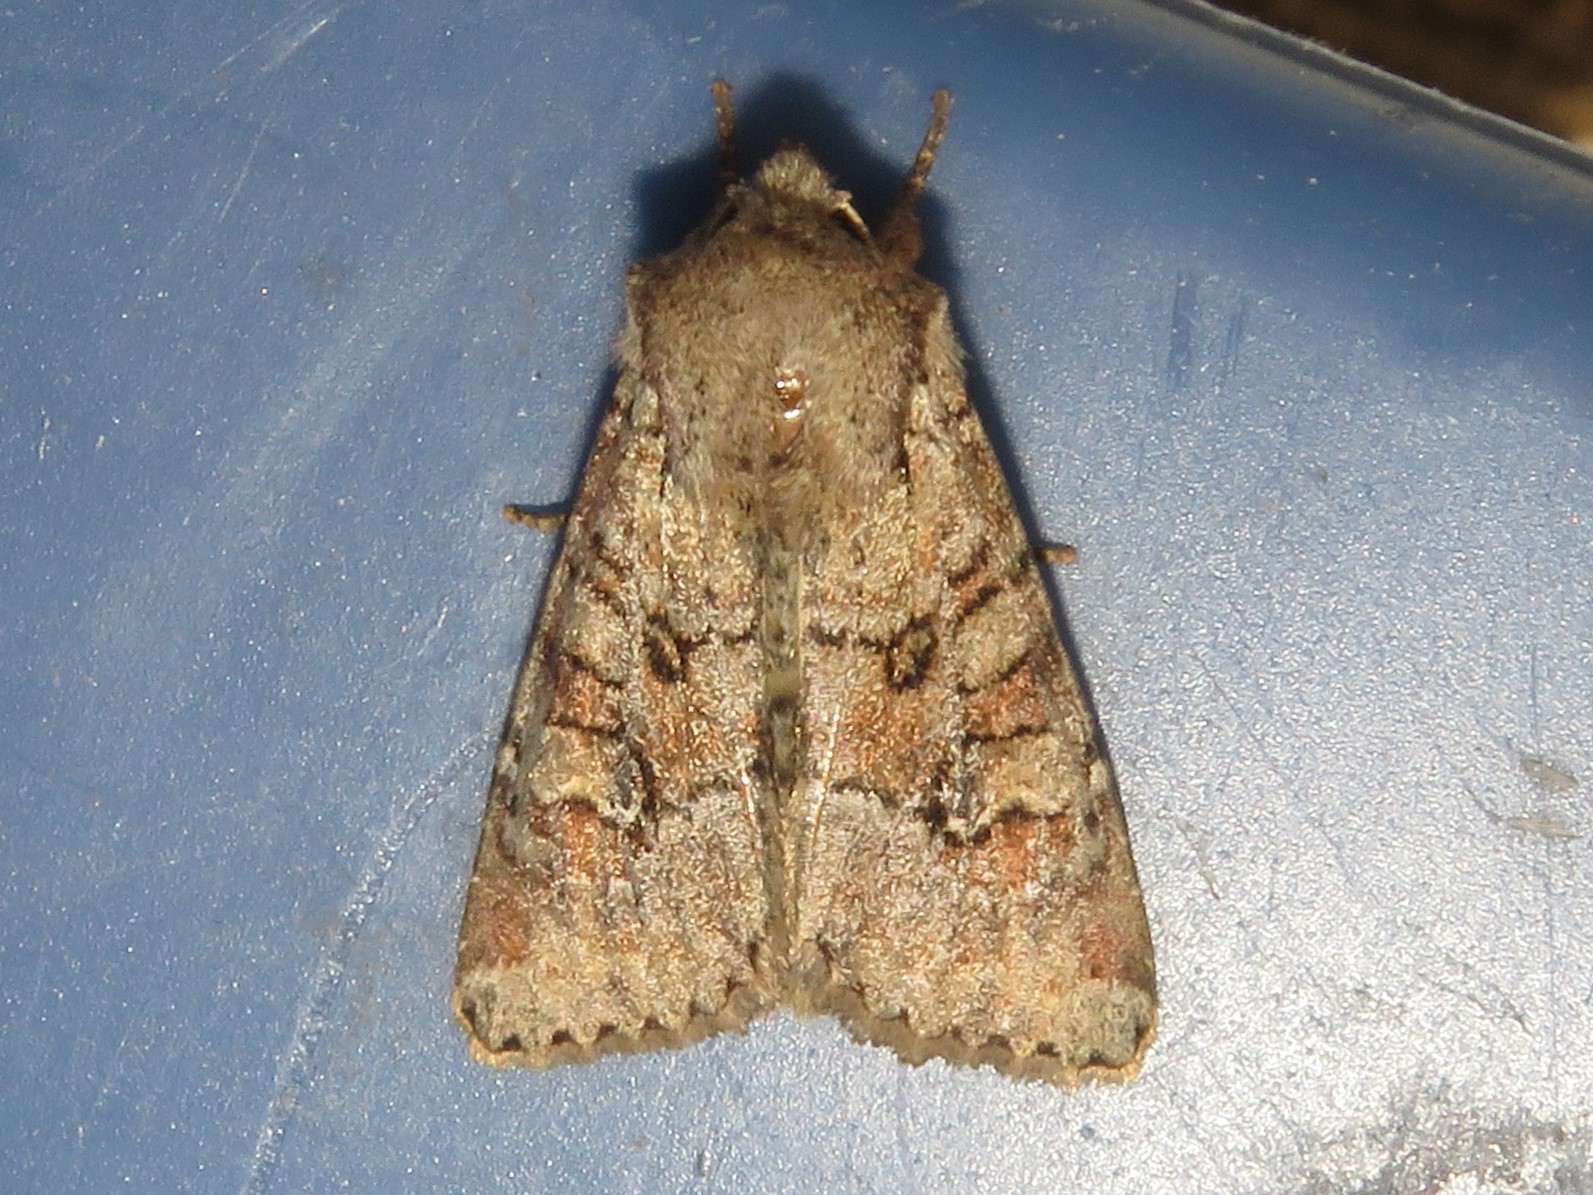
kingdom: Animalia
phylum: Arthropoda
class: Insecta
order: Lepidoptera
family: Noctuidae
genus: Apamea
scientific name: Apamea sordens
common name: Rustic shoulder-knot
